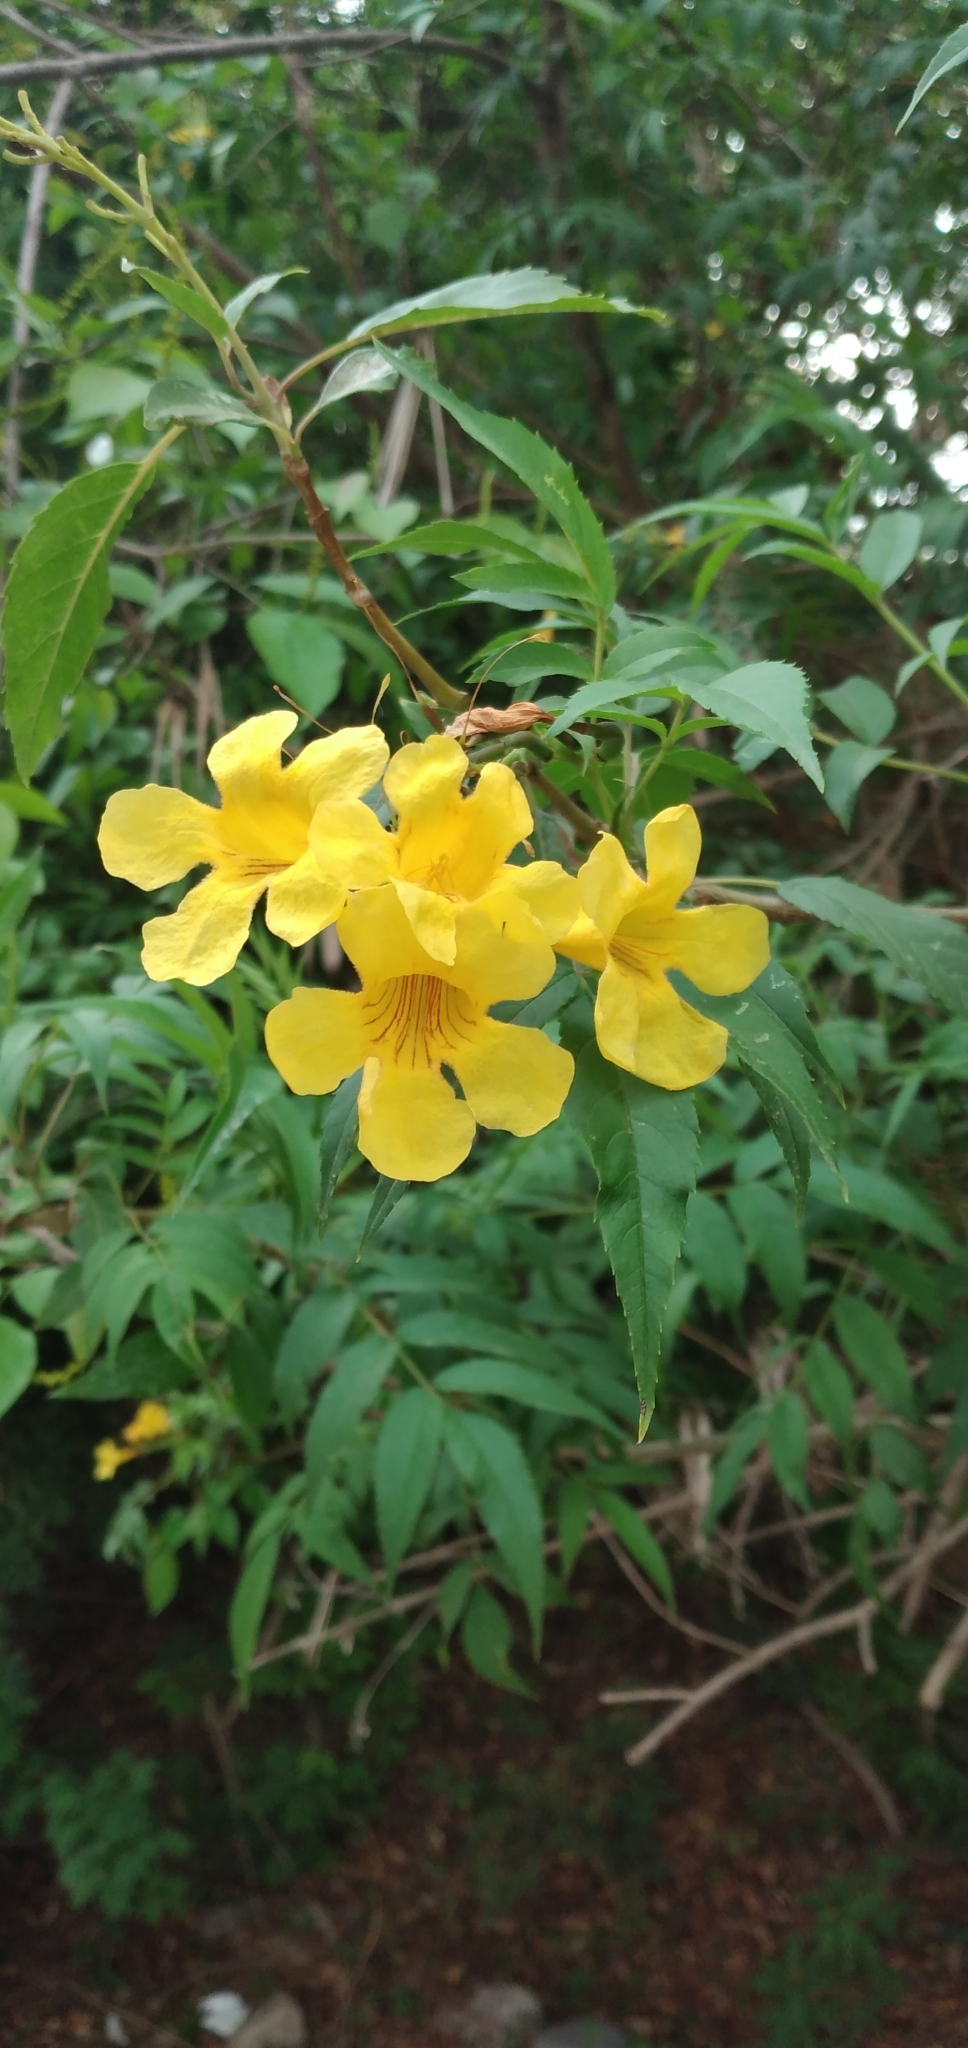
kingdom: Plantae
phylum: Tracheophyta
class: Magnoliopsida
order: Lamiales
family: Bignoniaceae
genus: Tecoma
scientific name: Tecoma stans
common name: Yellow trumpetbush
